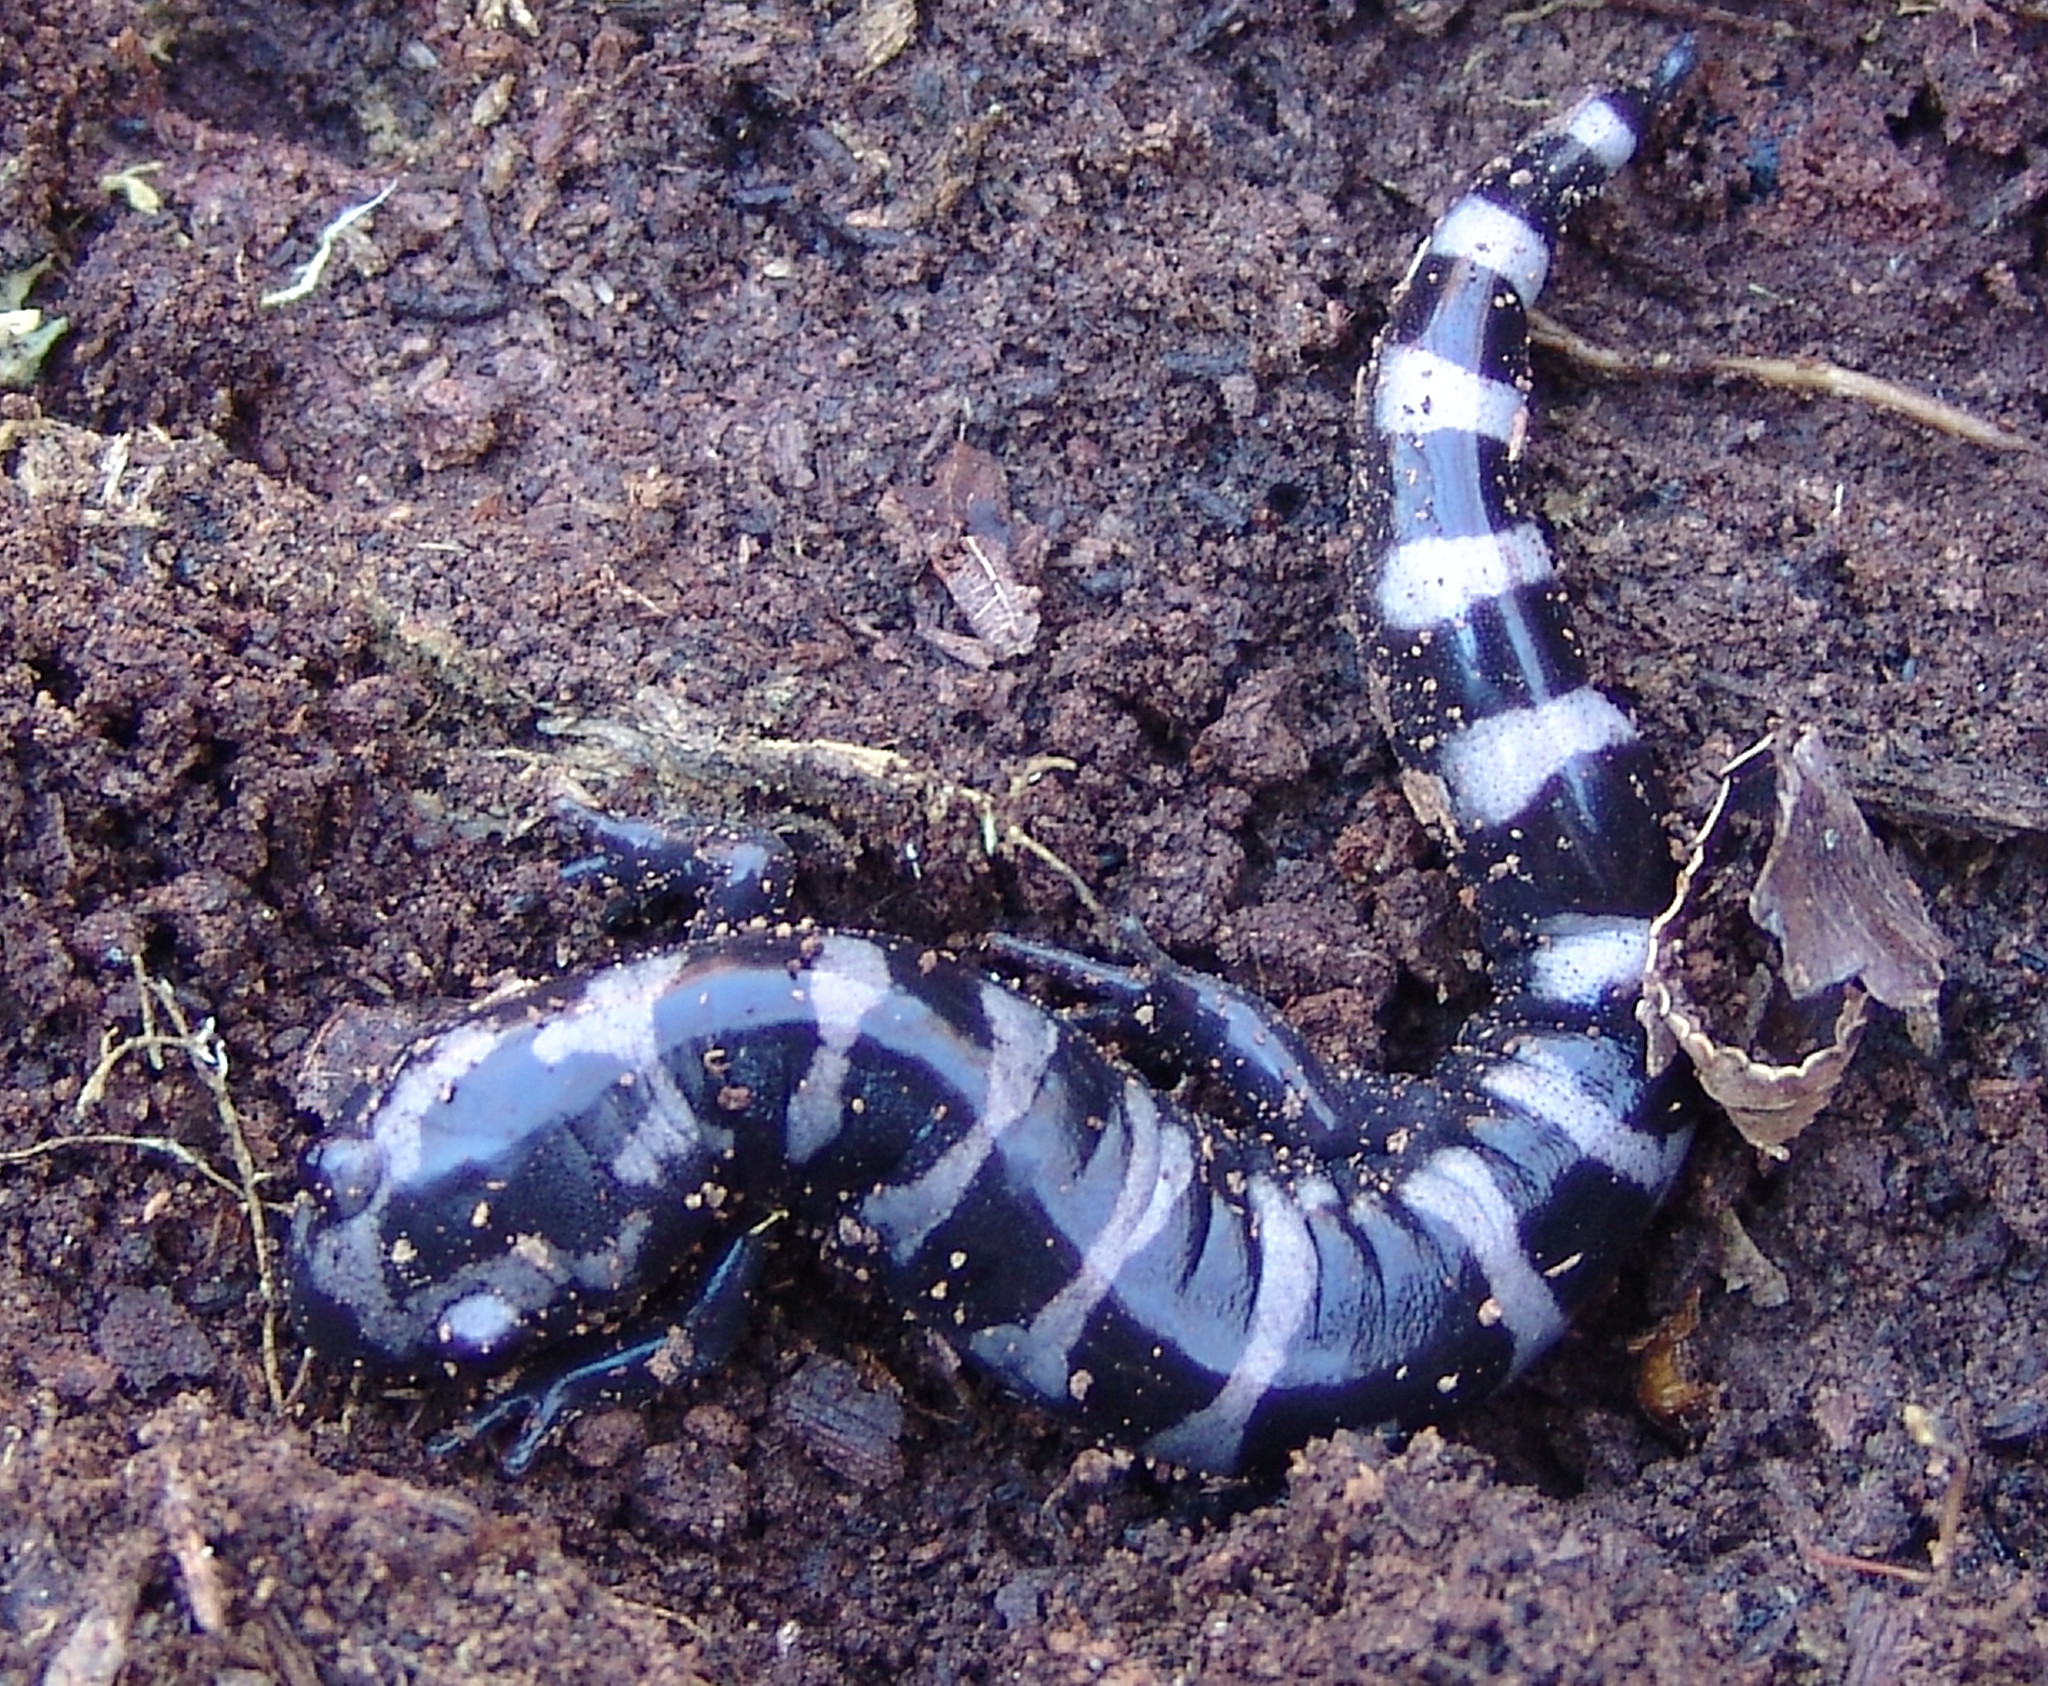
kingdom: Animalia
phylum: Chordata
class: Amphibia
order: Caudata
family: Ambystomatidae
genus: Ambystoma
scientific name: Ambystoma opacum
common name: Marbled salamander
